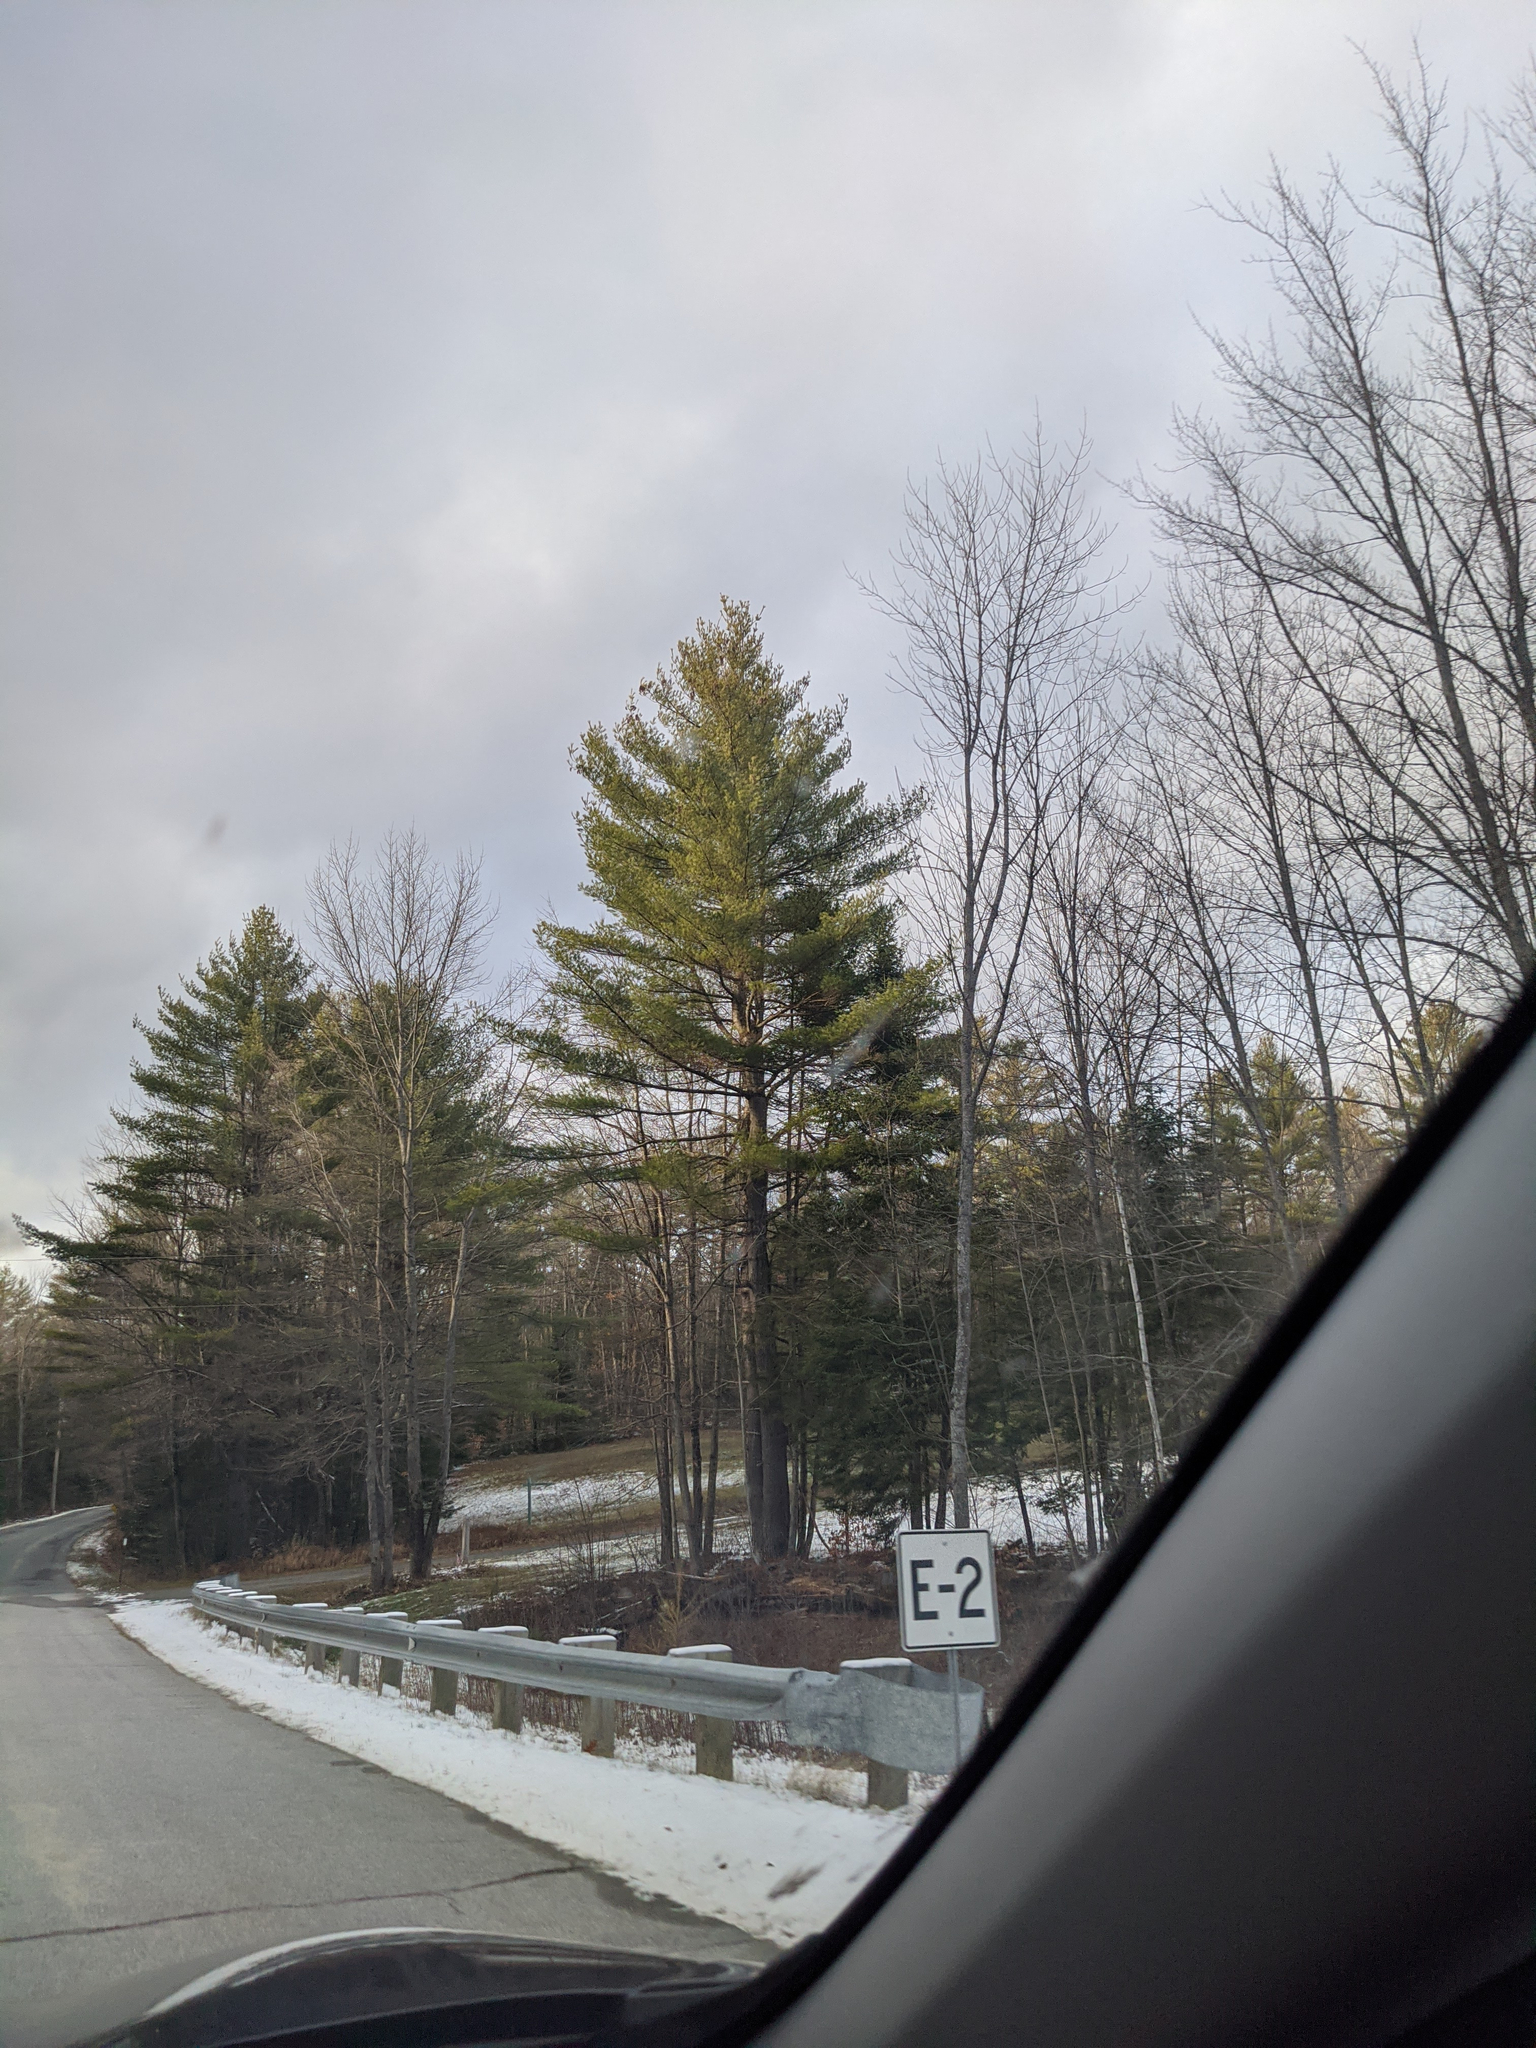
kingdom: Plantae
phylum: Tracheophyta
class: Pinopsida
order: Pinales
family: Pinaceae
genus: Pinus
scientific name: Pinus strobus
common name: Weymouth pine
